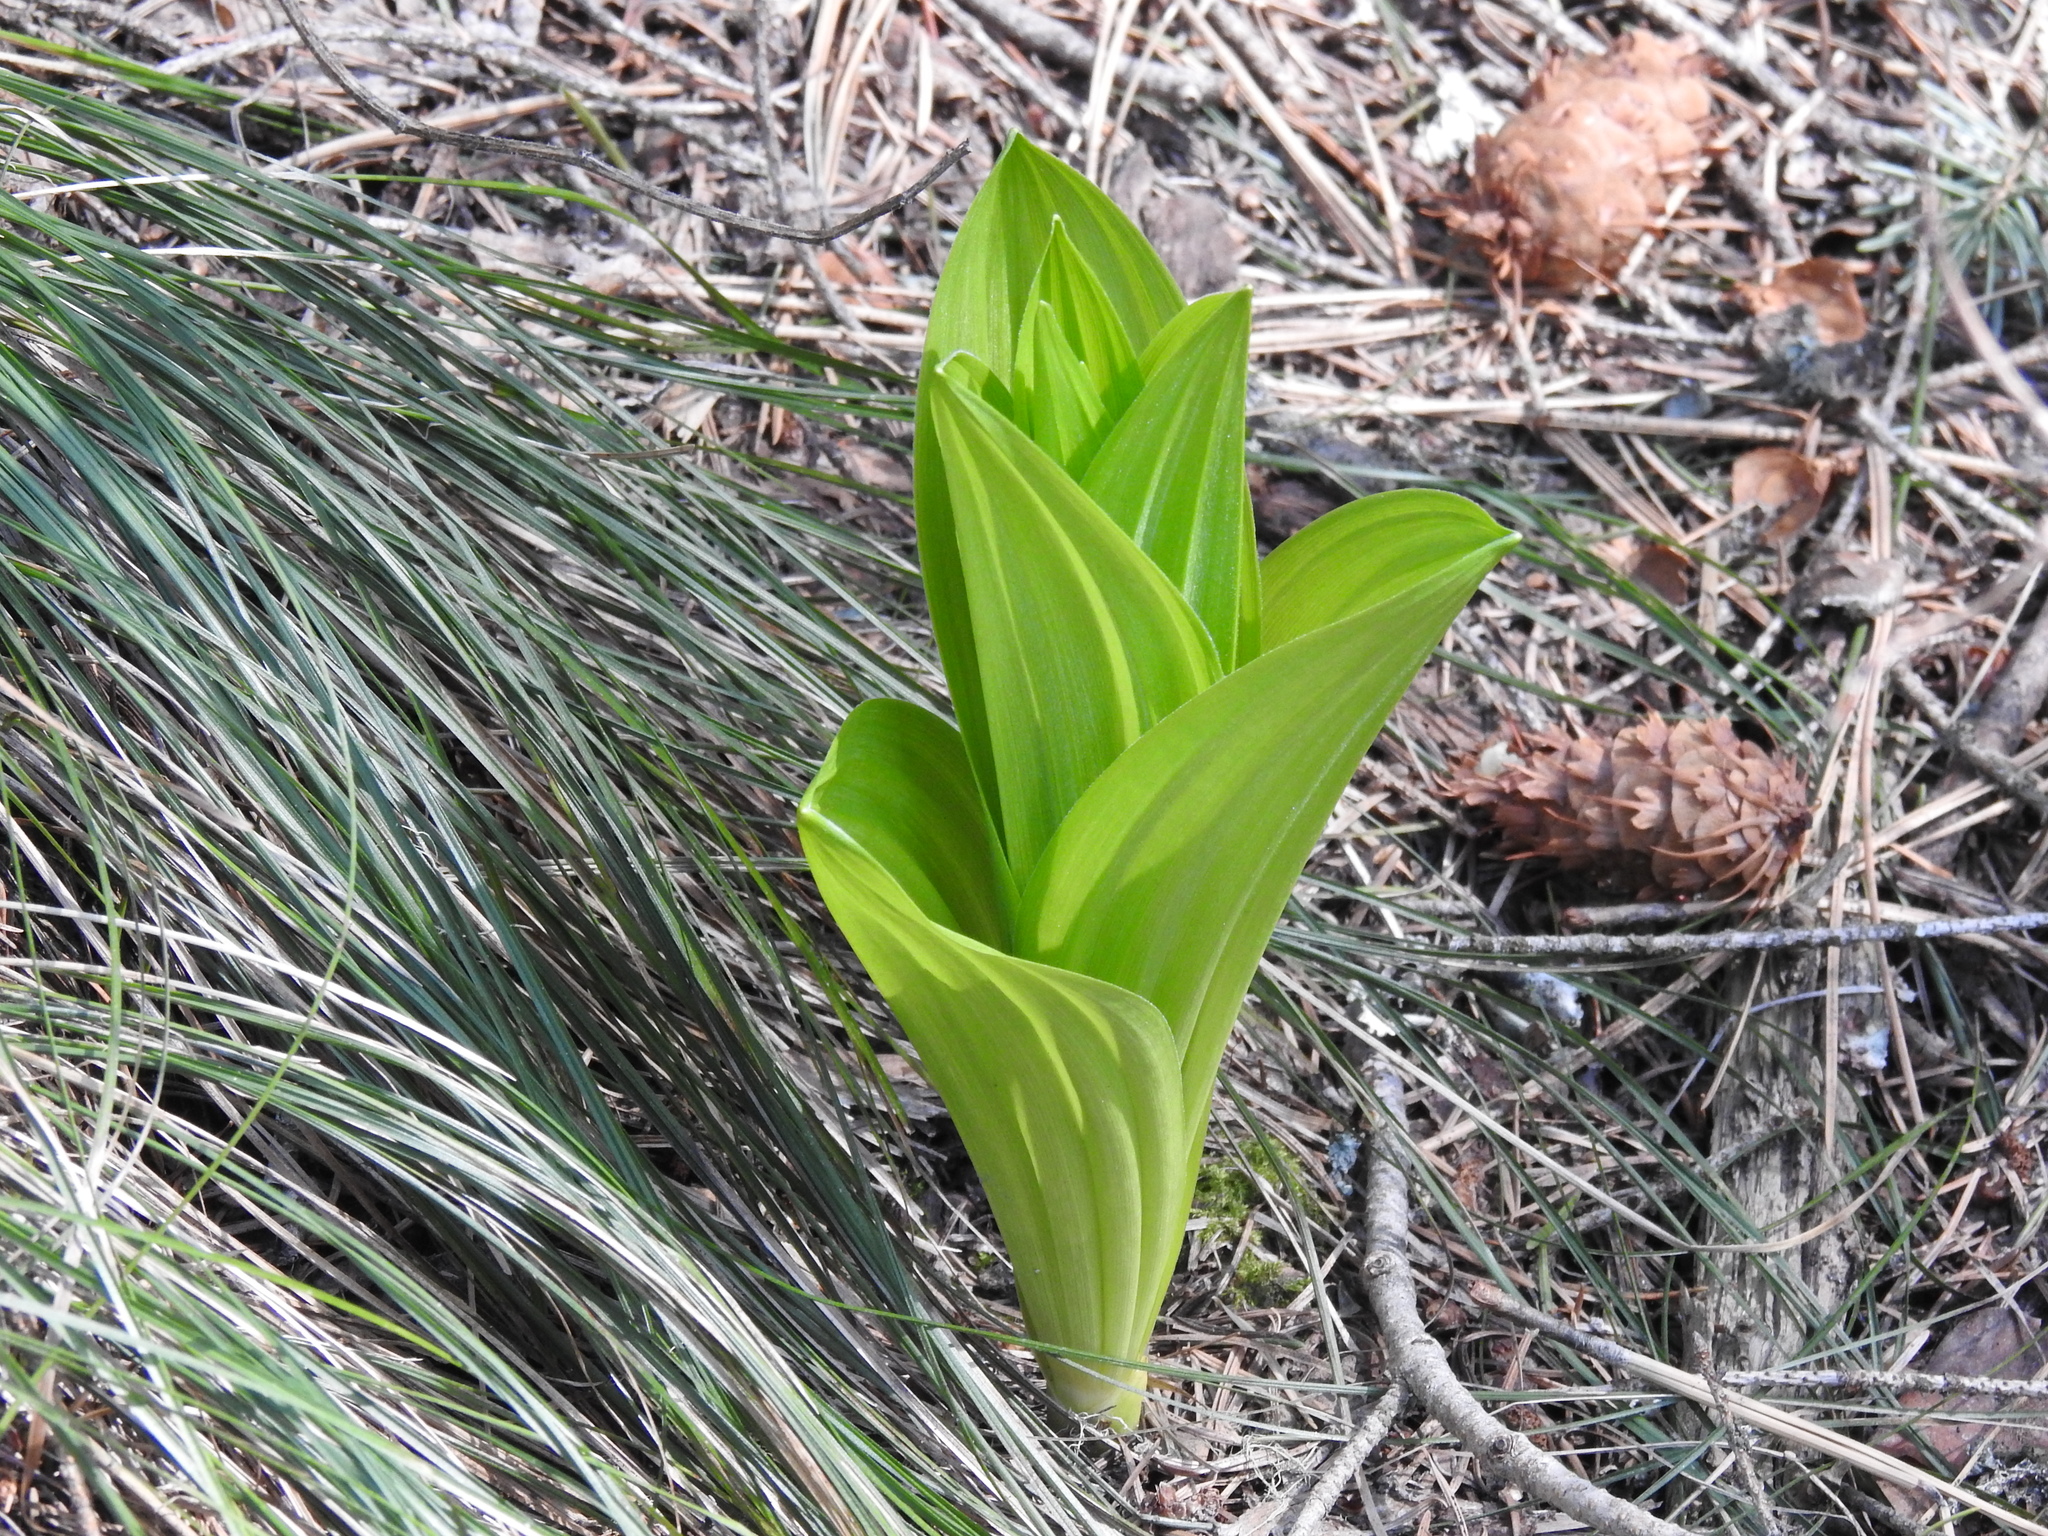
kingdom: Plantae
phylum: Tracheophyta
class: Liliopsida
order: Liliales
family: Melanthiaceae
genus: Veratrum
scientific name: Veratrum viride
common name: American false hellebore
